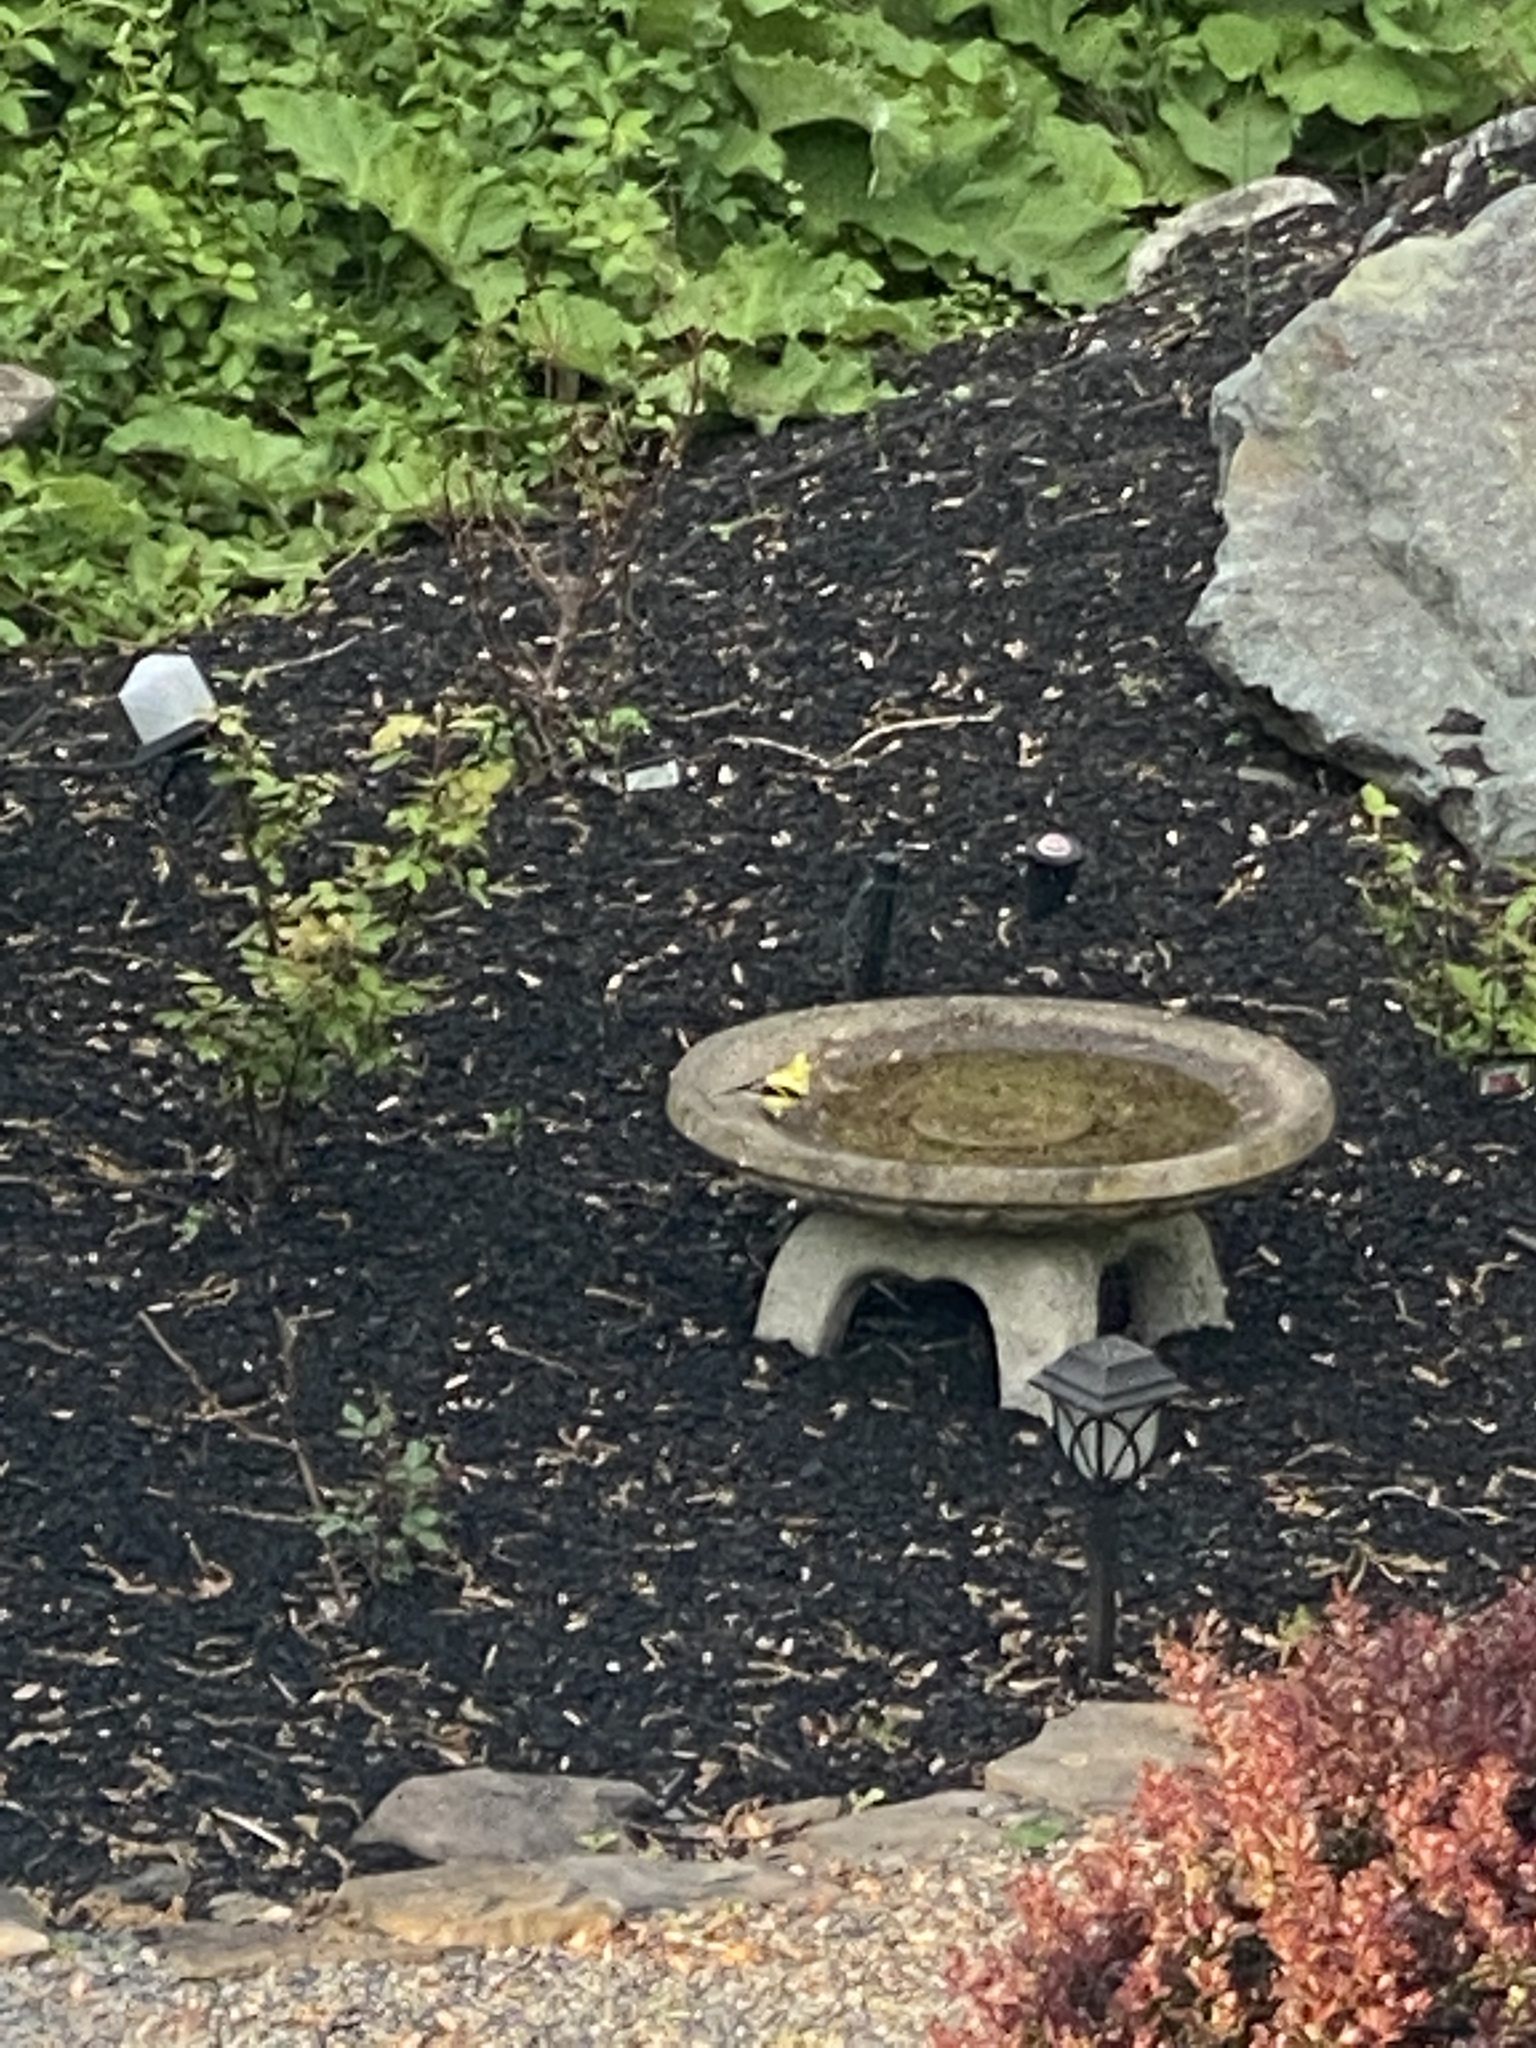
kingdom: Animalia
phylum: Chordata
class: Aves
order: Passeriformes
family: Fringillidae
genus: Spinus
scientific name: Spinus tristis
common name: American goldfinch
